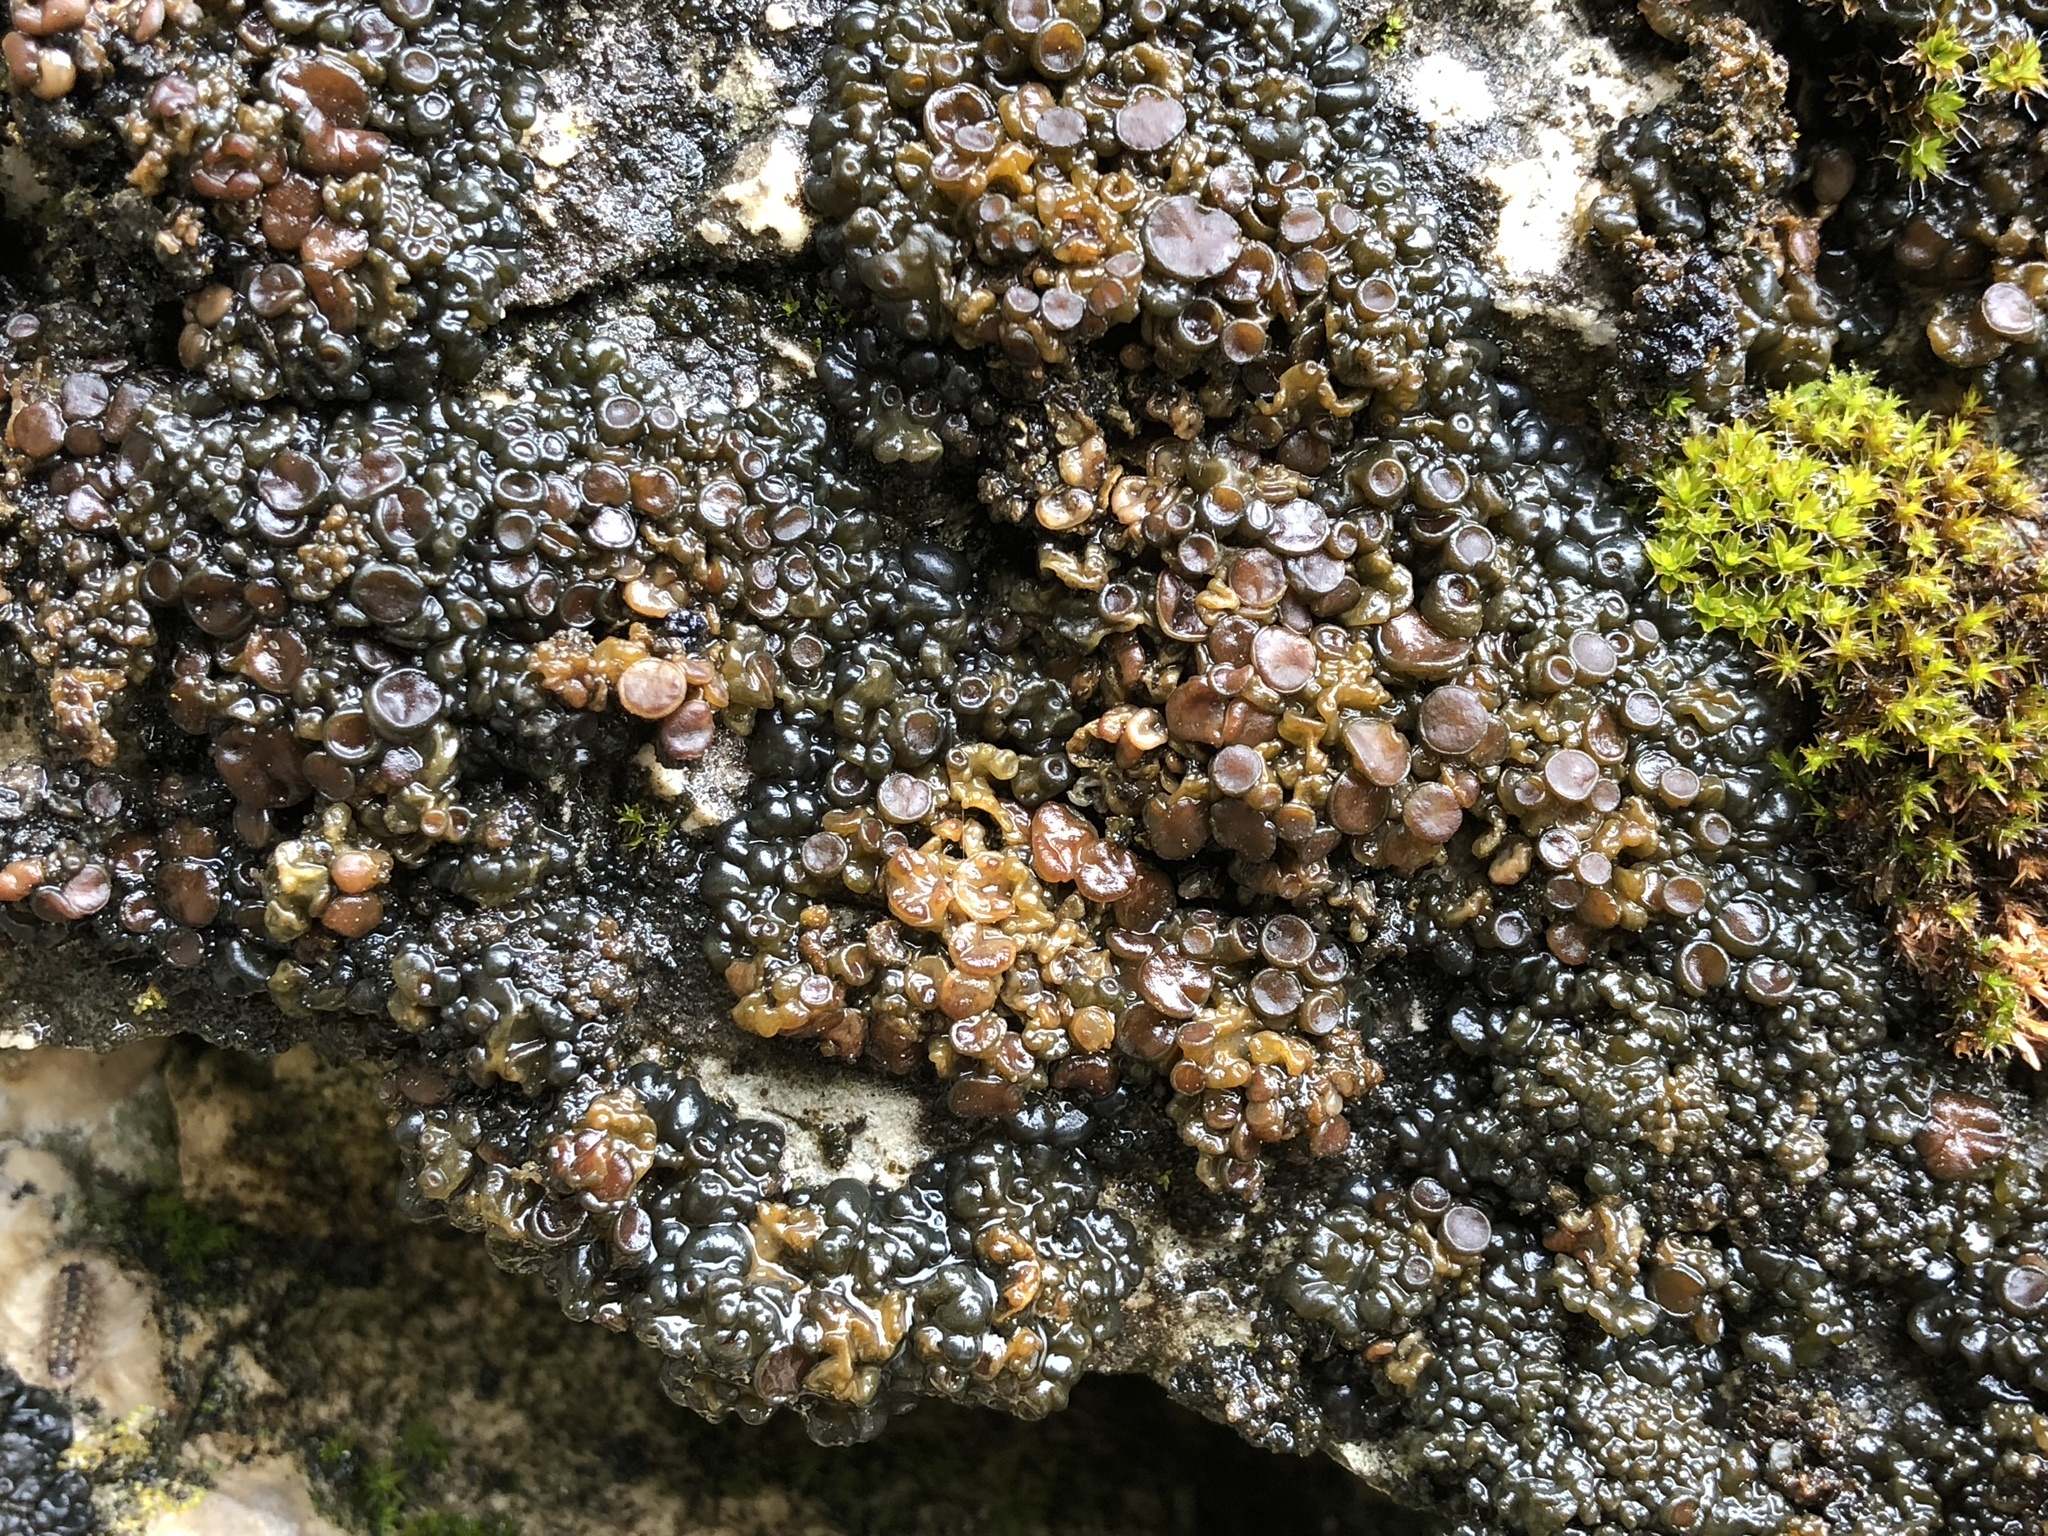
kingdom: Fungi
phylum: Ascomycota
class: Lecanoromycetes
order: Peltigerales
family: Collemataceae
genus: Enchylium
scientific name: Enchylium tenax
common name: Jelly lichen
